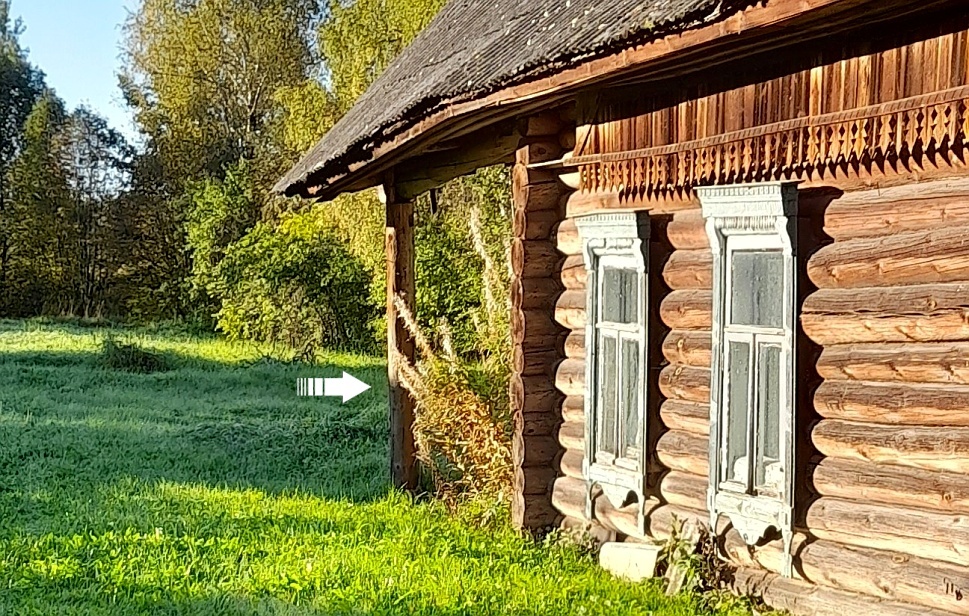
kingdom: Plantae
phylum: Tracheophyta
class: Magnoliopsida
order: Myrtales
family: Onagraceae
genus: Chamaenerion
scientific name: Chamaenerion angustifolium
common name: Fireweed
